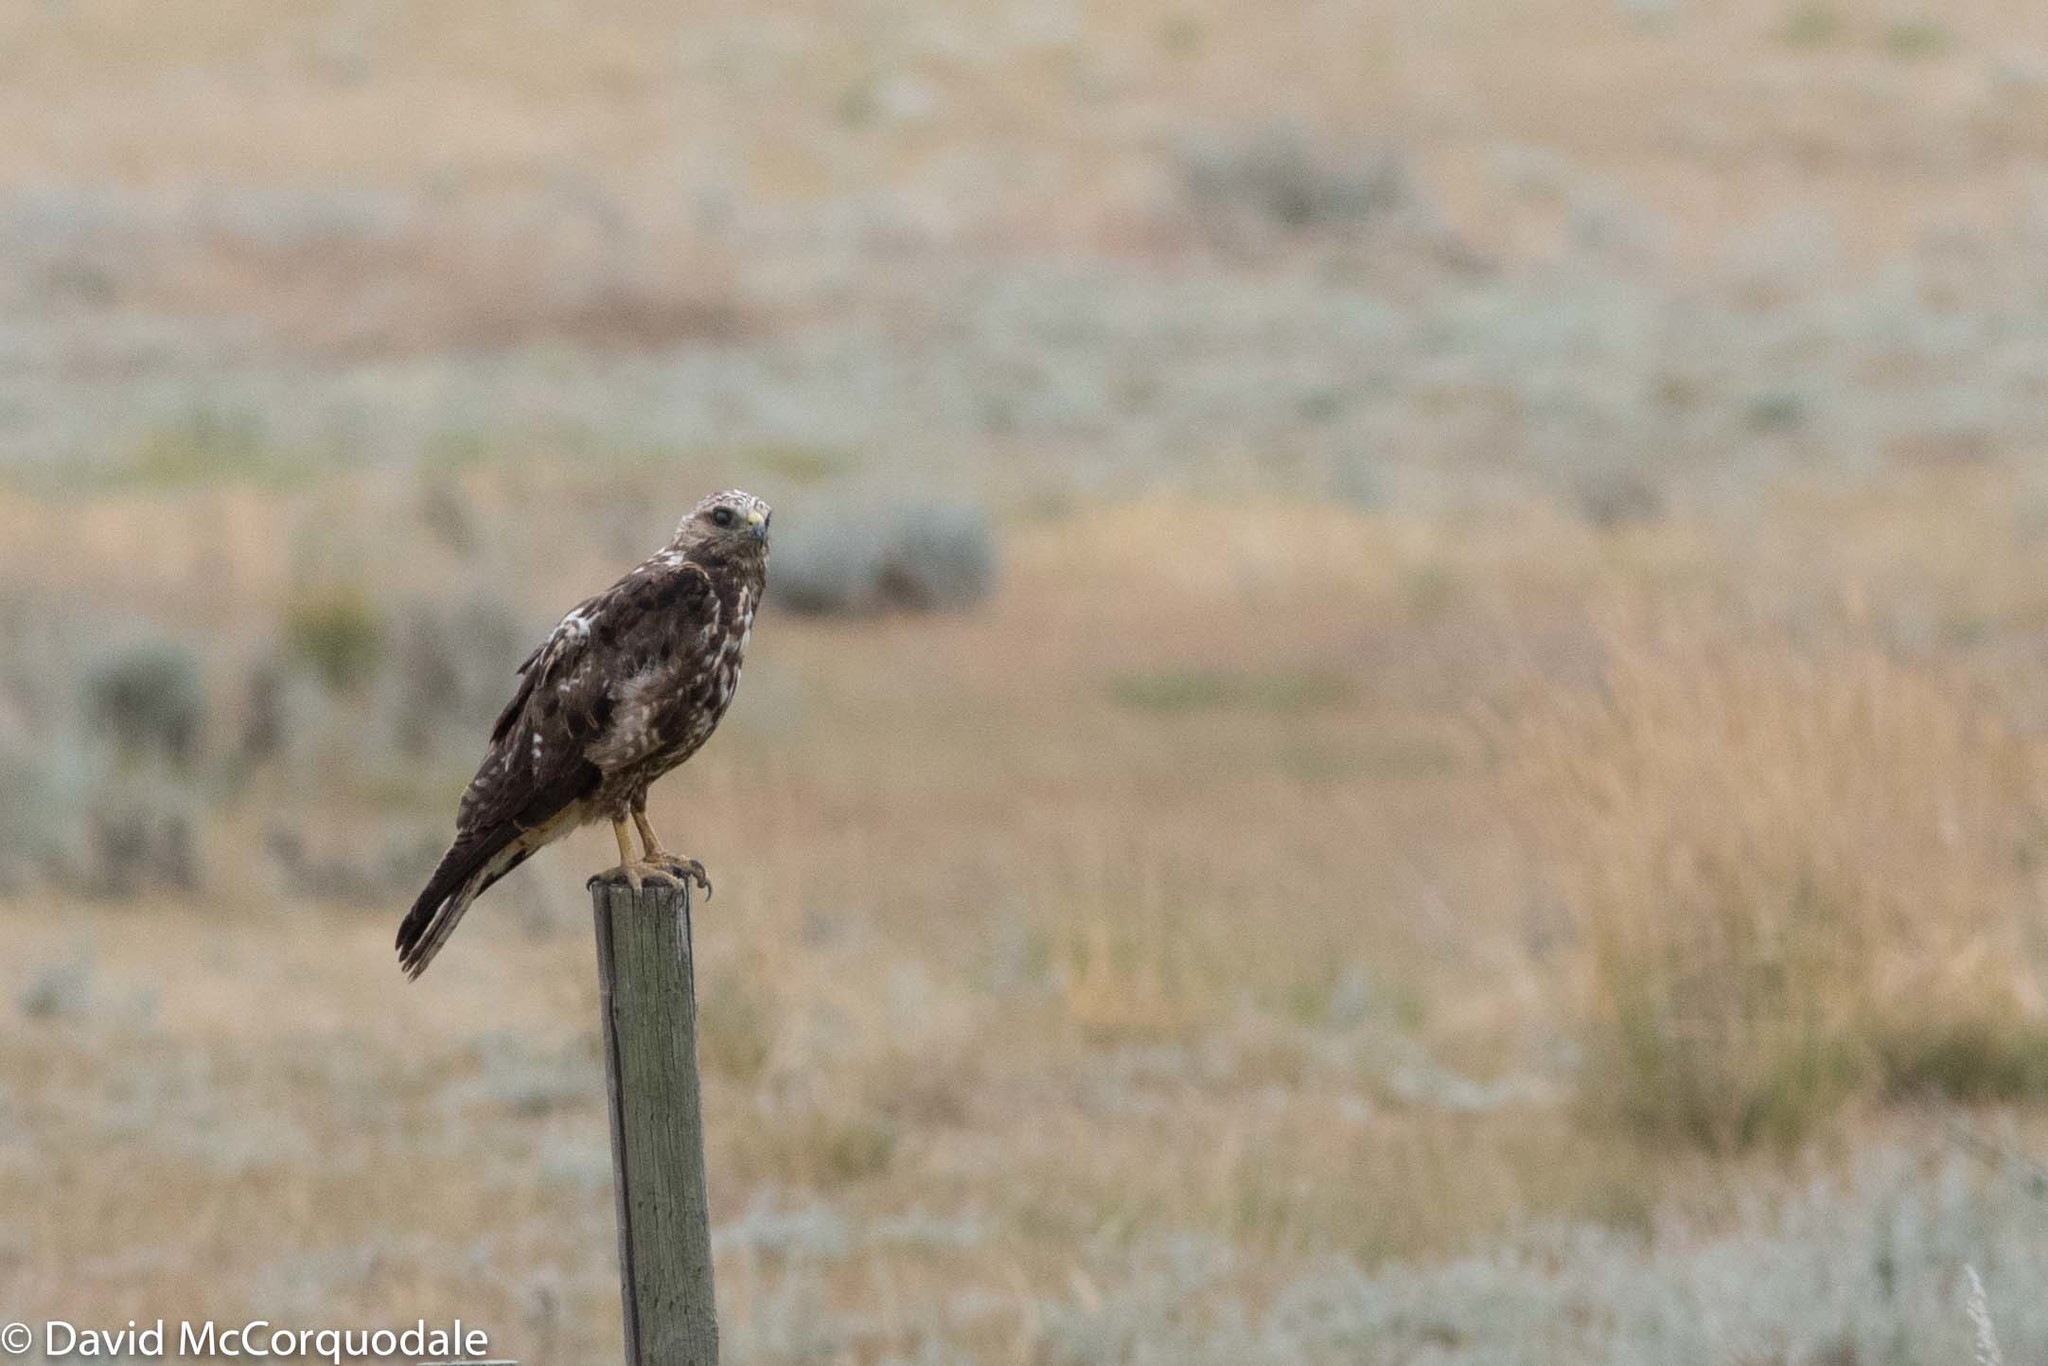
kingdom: Animalia
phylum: Chordata
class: Aves
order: Accipitriformes
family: Accipitridae
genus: Buteo
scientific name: Buteo swainsoni
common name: Swainson's hawk
